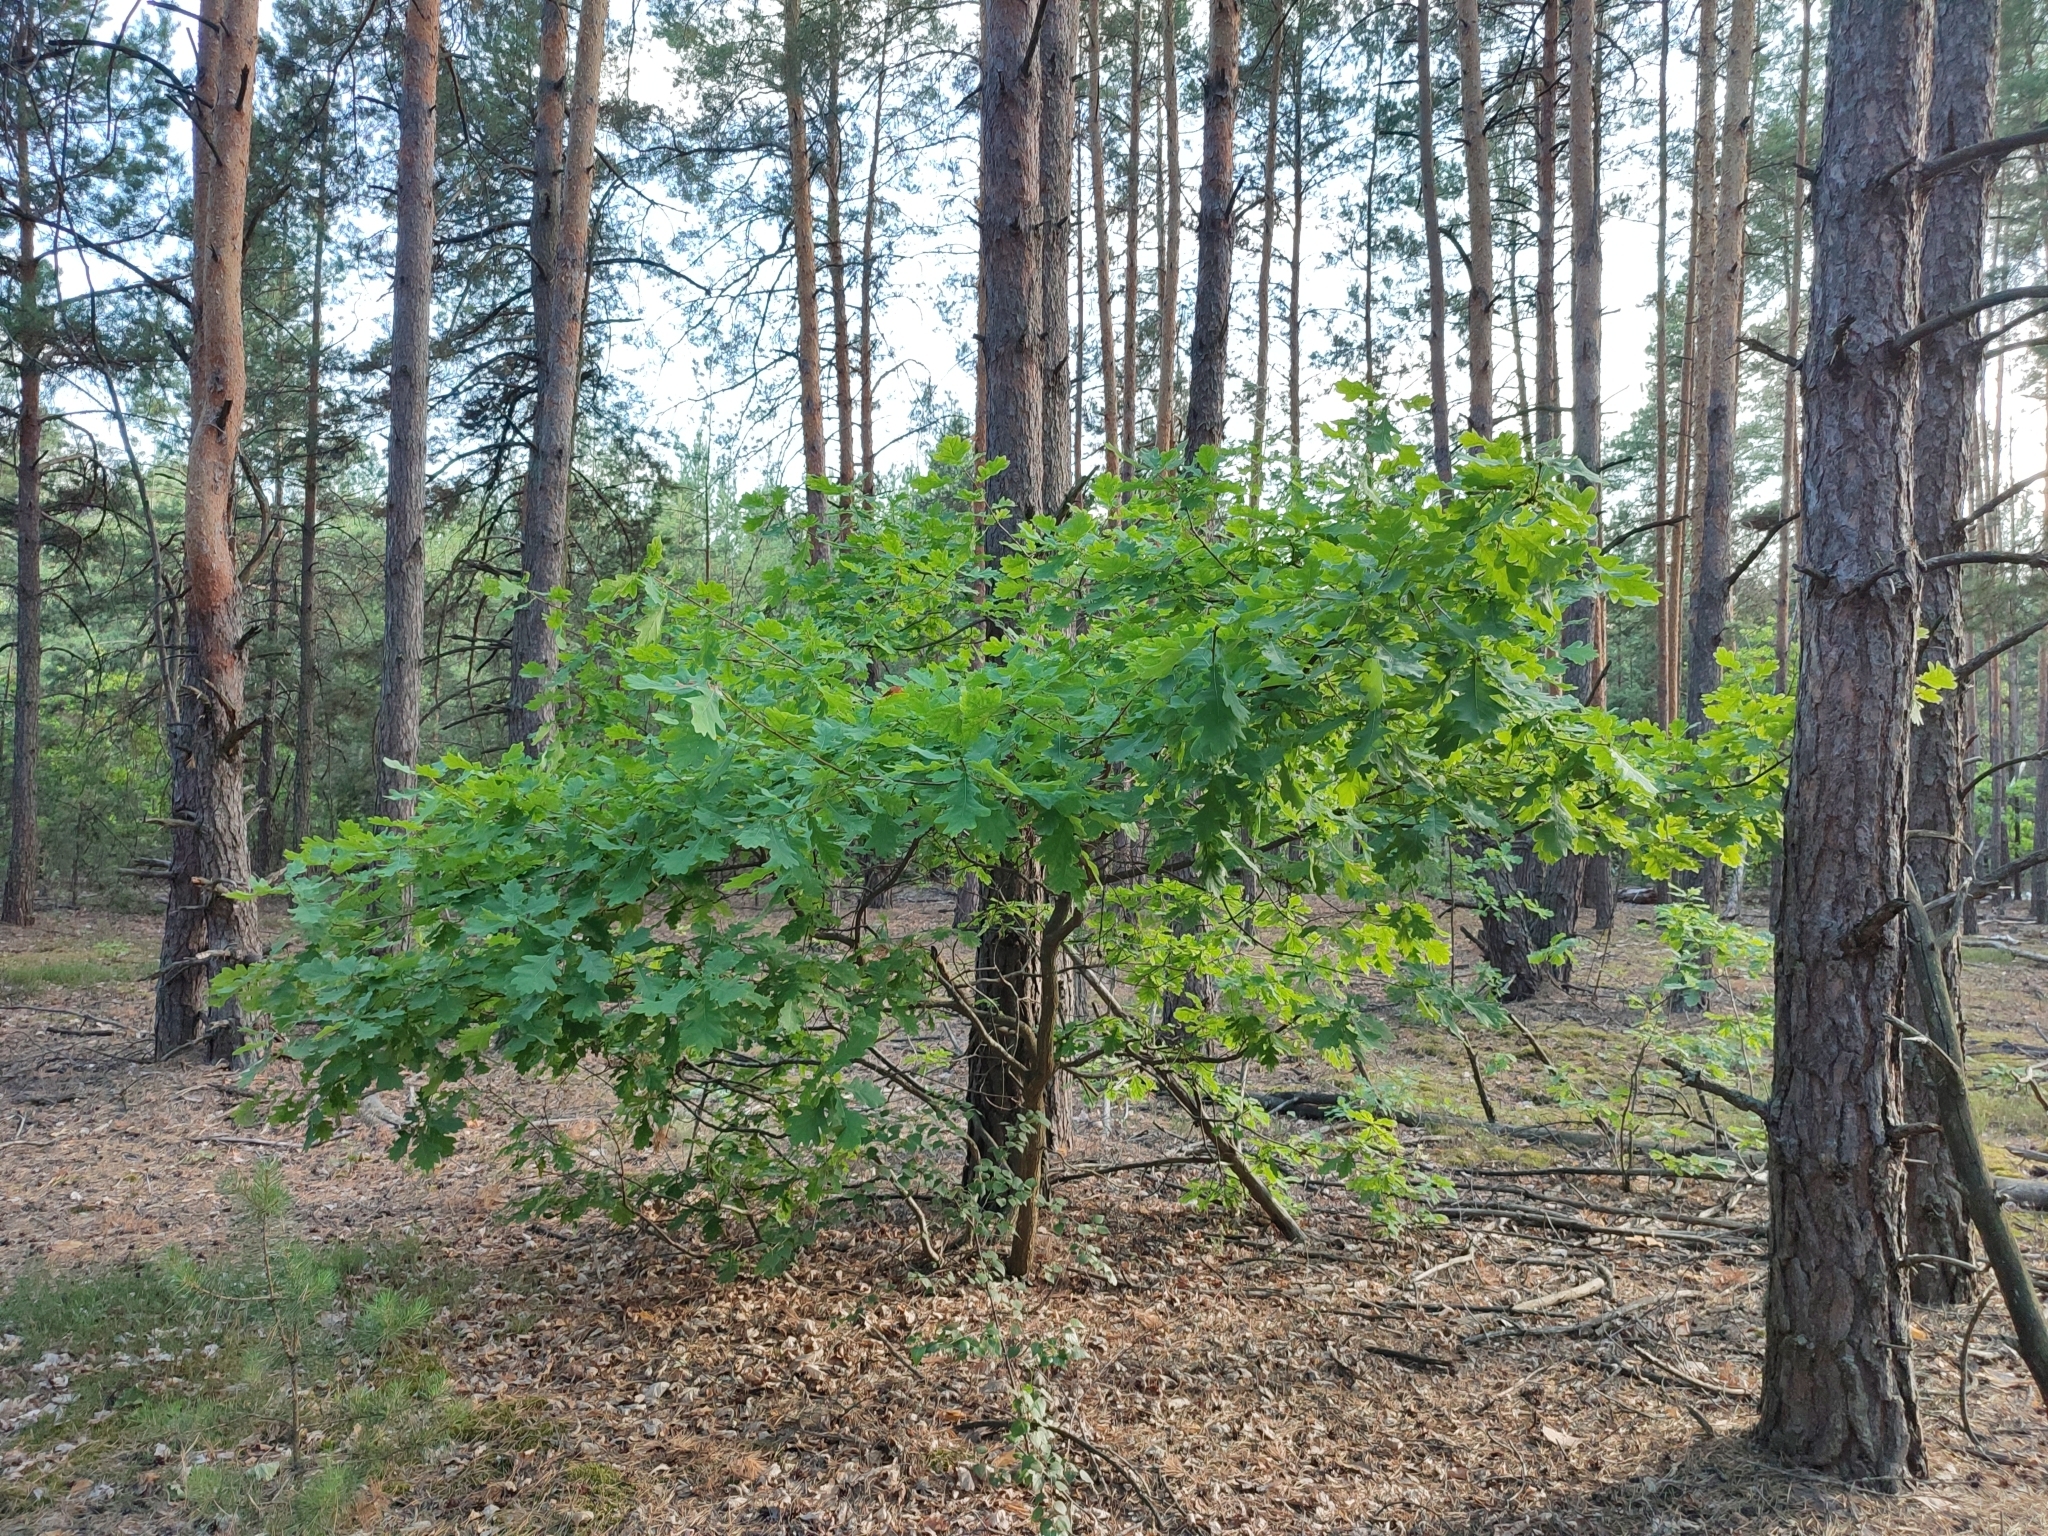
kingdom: Plantae
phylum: Tracheophyta
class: Magnoliopsida
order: Fagales
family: Fagaceae
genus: Quercus
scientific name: Quercus robur
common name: Pedunculate oak
